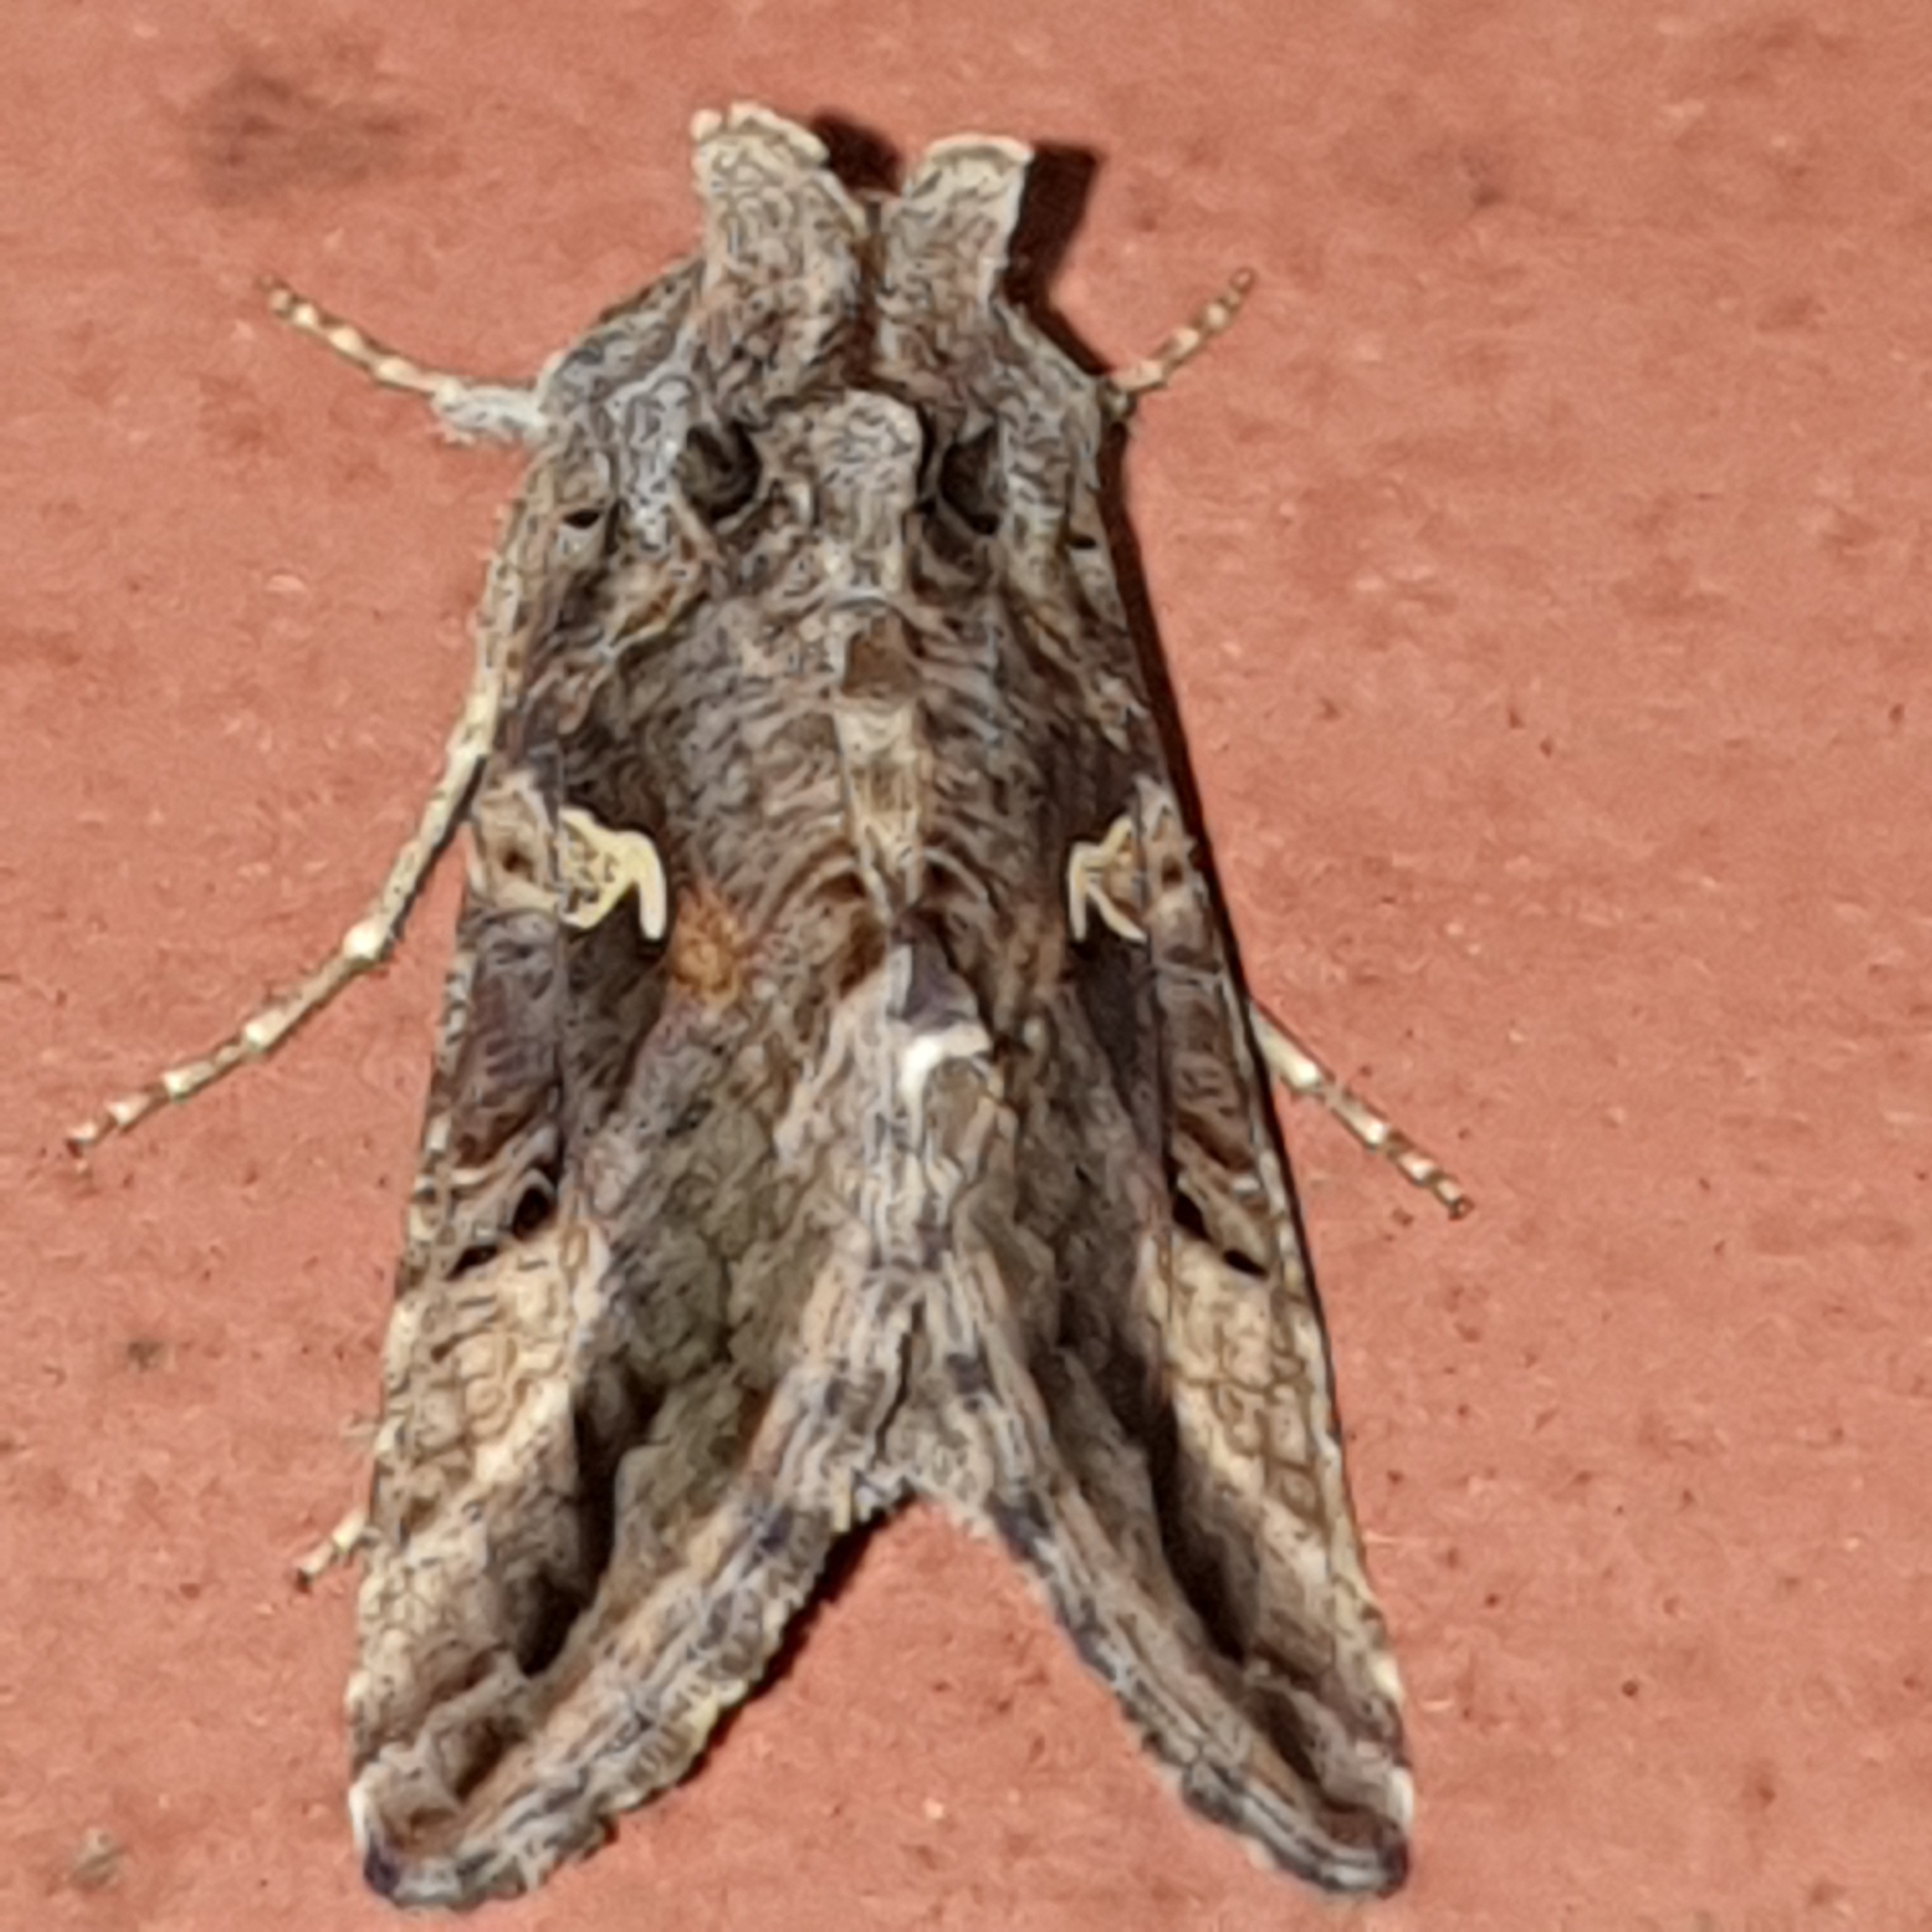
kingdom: Animalia
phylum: Arthropoda
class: Insecta
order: Lepidoptera
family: Noctuidae
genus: Autographa
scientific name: Autographa gamma
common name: Silver y
